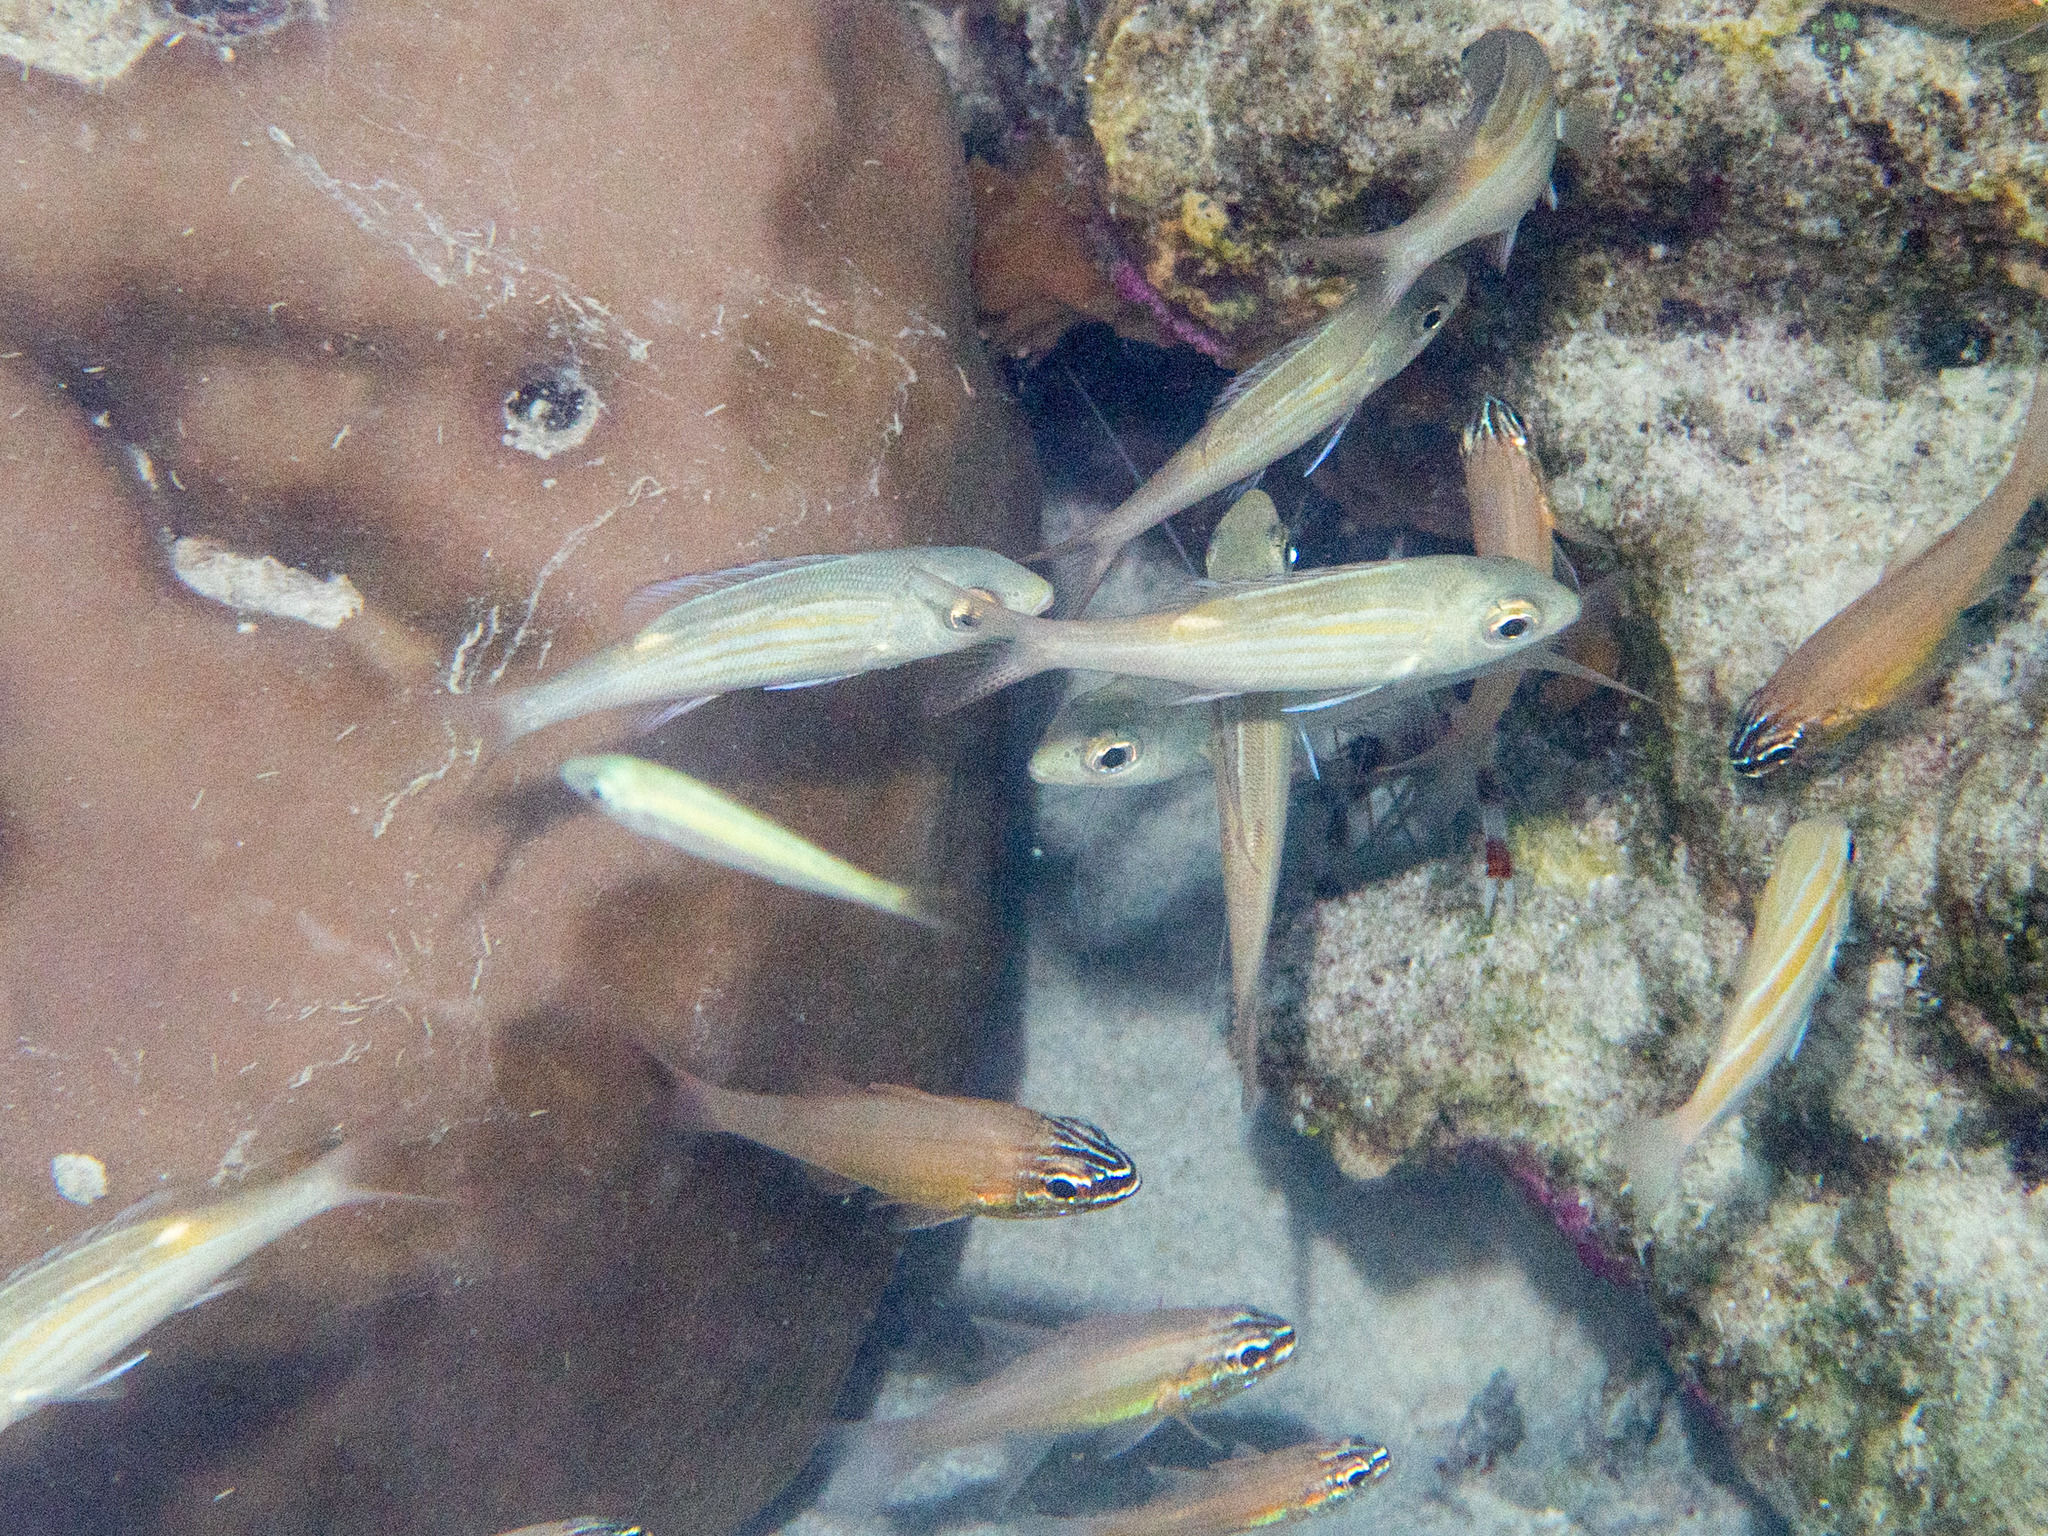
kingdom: Animalia
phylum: Chordata
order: Perciformes
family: Lethrinidae
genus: Gnathodentex
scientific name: Gnathodentex aureolineatus
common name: Gold-lined sea bream
